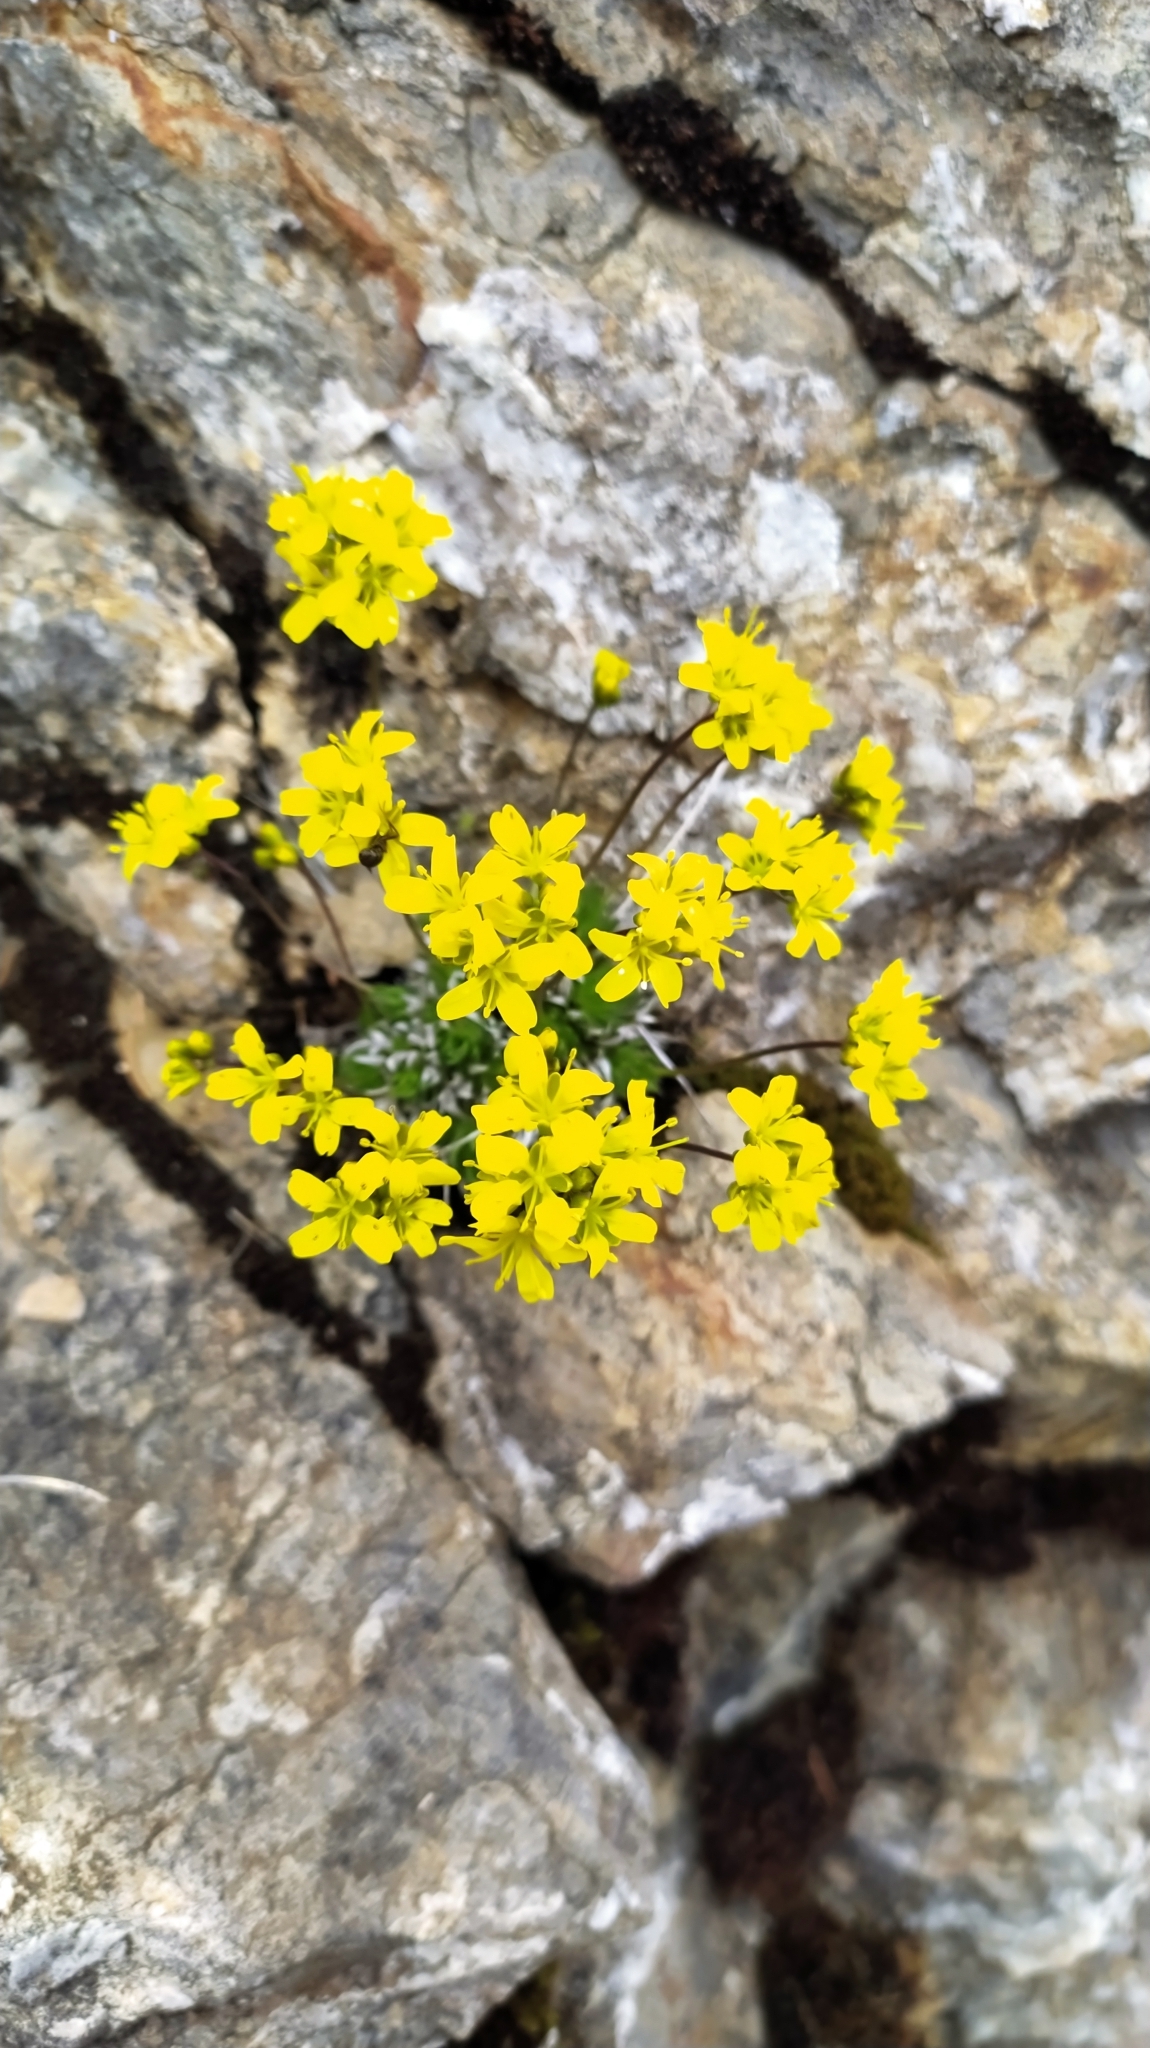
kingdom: Plantae
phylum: Tracheophyta
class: Magnoliopsida
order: Brassicales
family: Brassicaceae
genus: Draba
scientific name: Draba aizoides
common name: Yellow whitlowgrass
